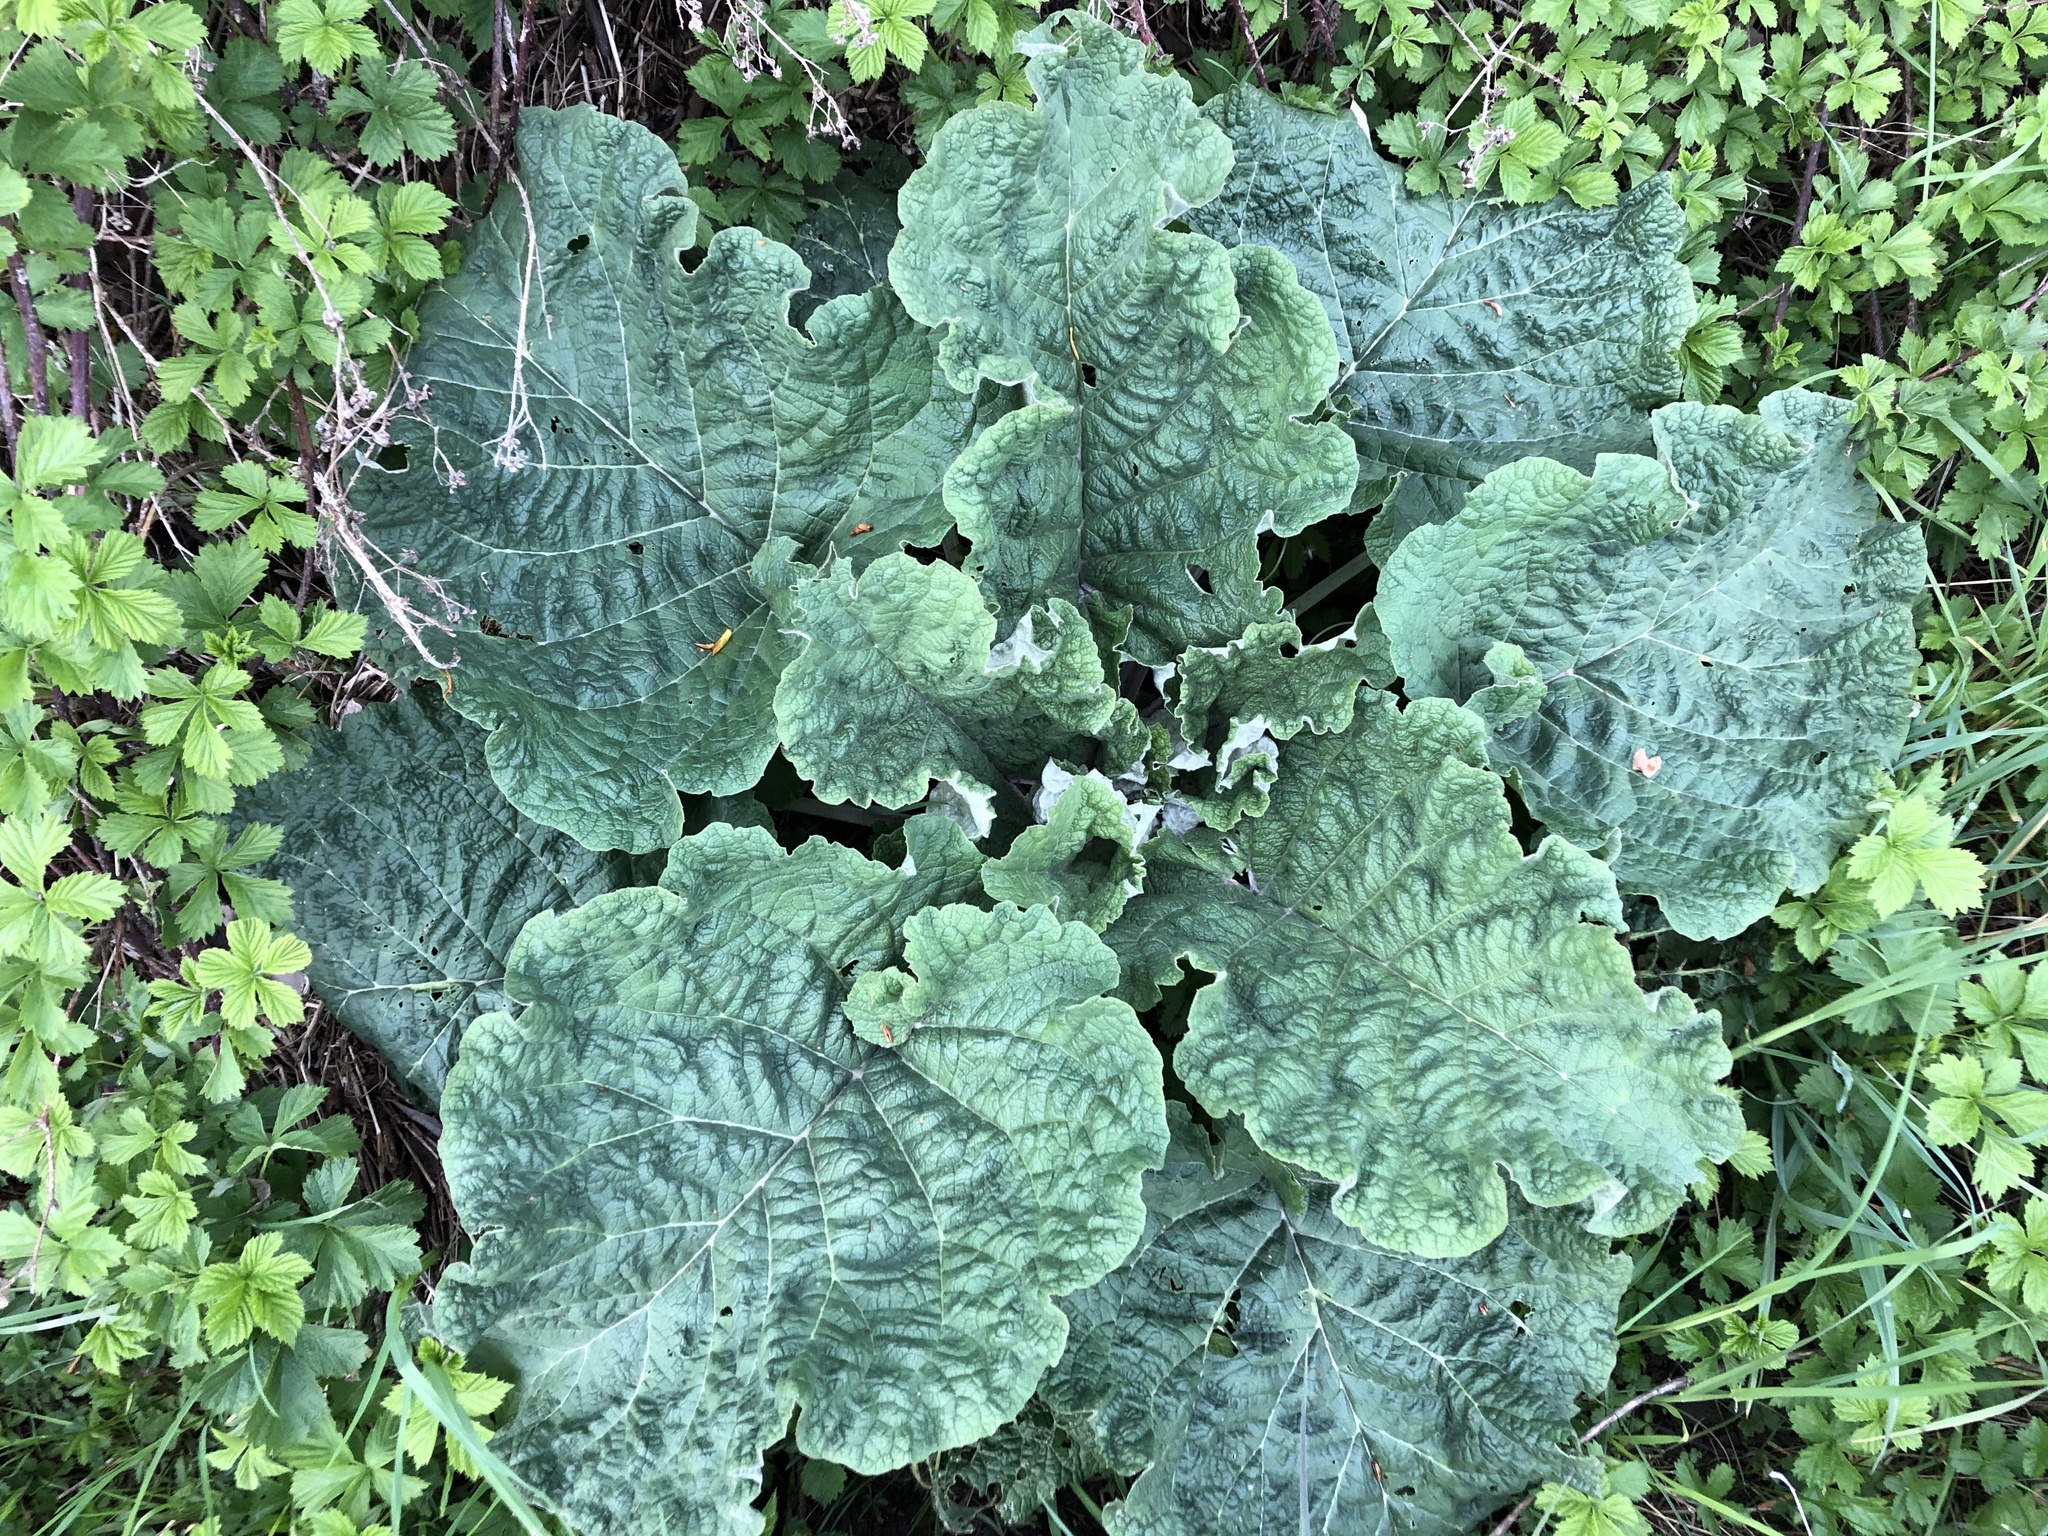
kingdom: Plantae
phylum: Tracheophyta
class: Magnoliopsida
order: Asterales
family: Asteraceae
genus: Arctium
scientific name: Arctium
